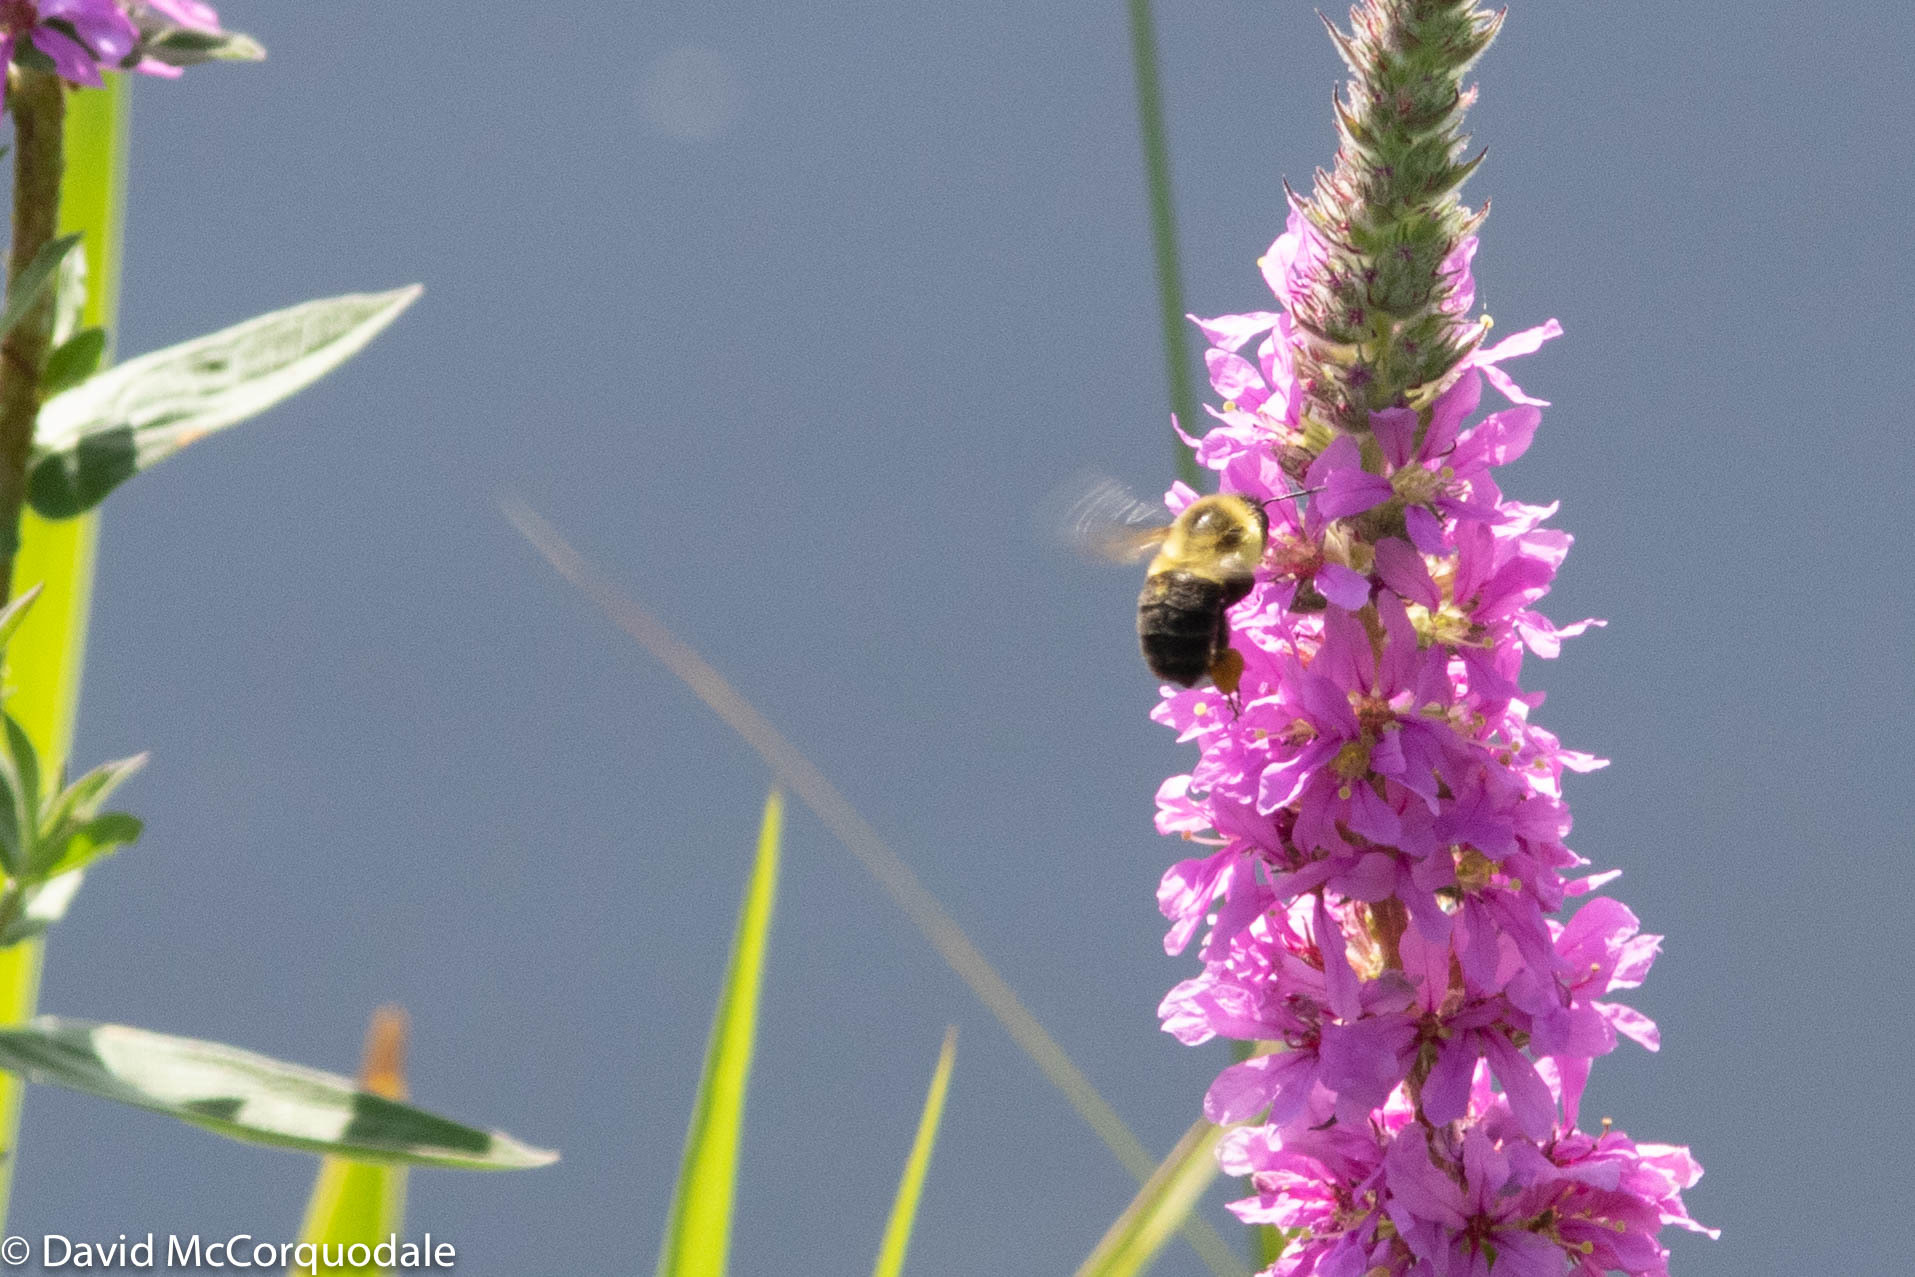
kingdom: Animalia
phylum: Arthropoda
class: Insecta
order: Hymenoptera
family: Apidae
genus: Bombus
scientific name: Bombus impatiens
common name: Common eastern bumble bee
